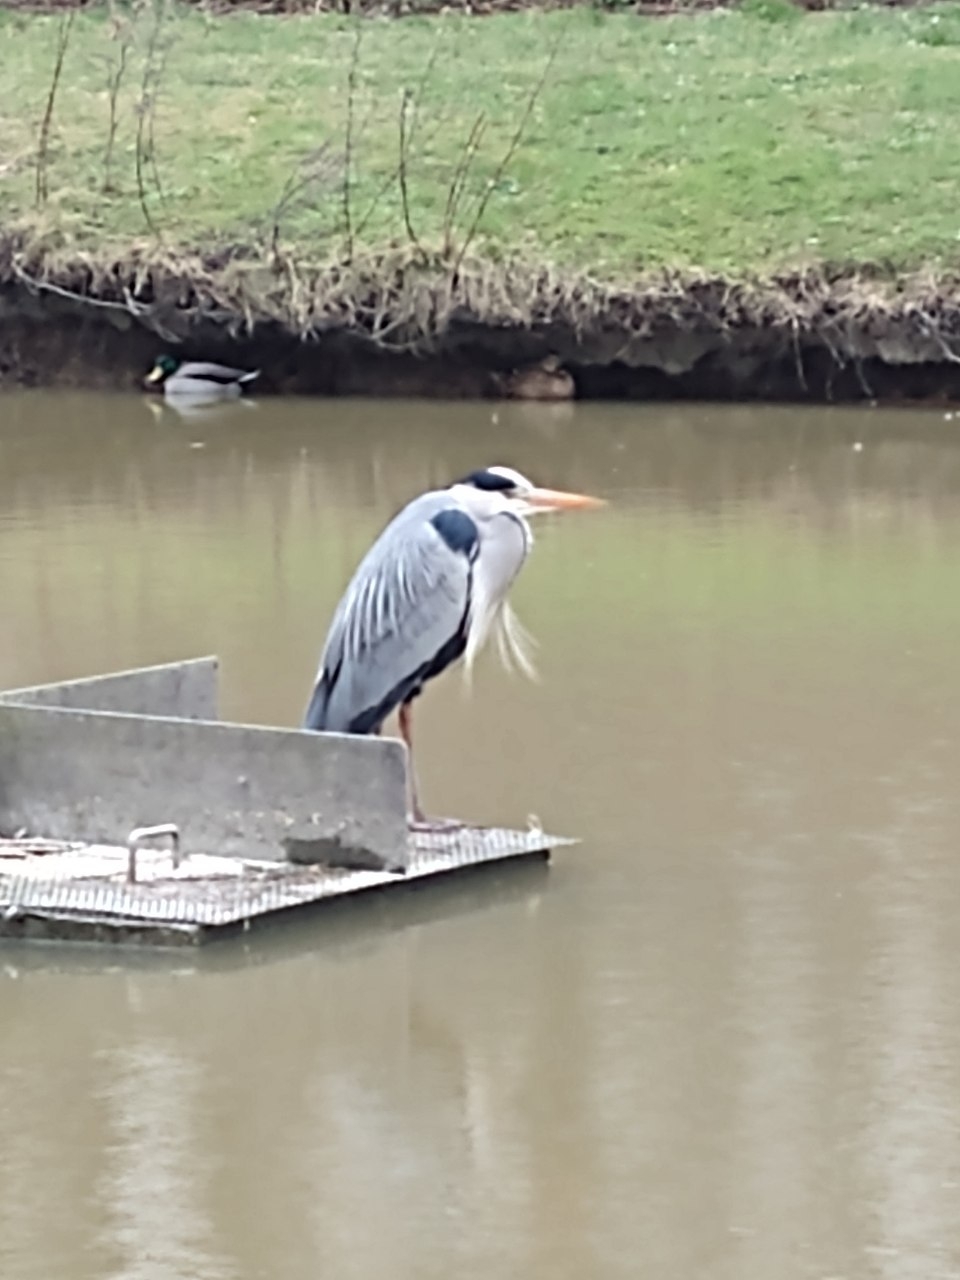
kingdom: Animalia
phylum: Chordata
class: Aves
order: Pelecaniformes
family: Ardeidae
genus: Ardea
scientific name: Ardea cinerea
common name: Grey heron
